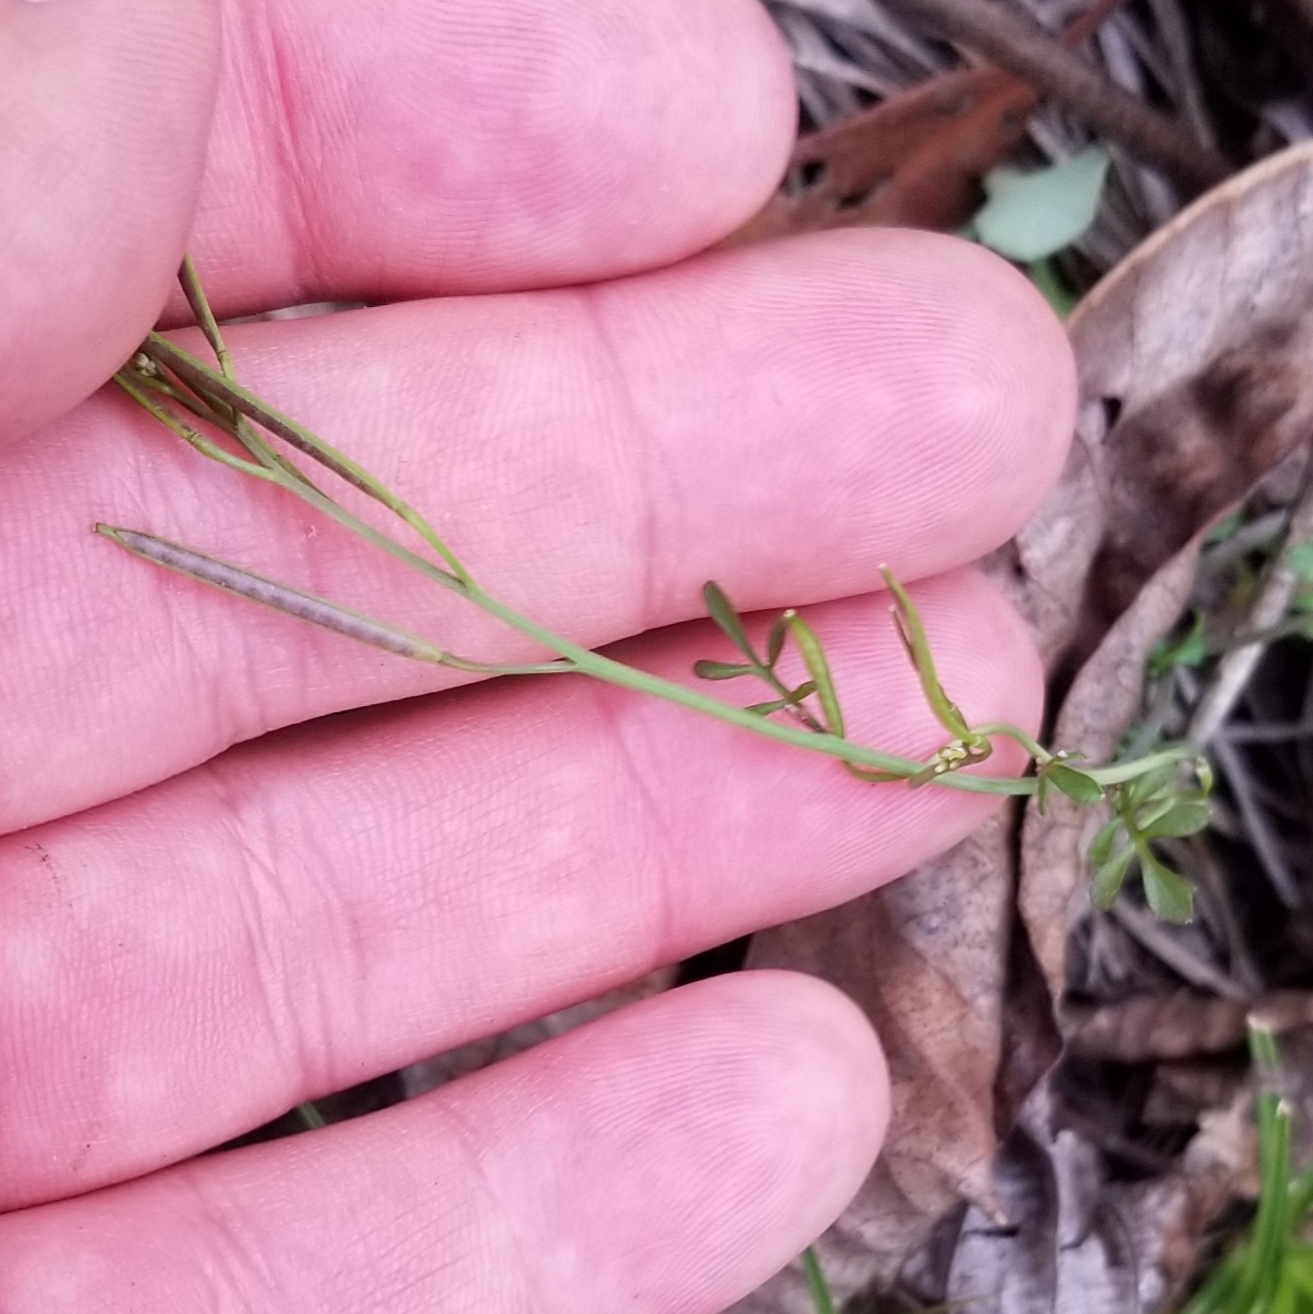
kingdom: Plantae
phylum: Tracheophyta
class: Magnoliopsida
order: Brassicales
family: Brassicaceae
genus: Cardamine
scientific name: Cardamine hirsuta
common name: Hairy bittercress
